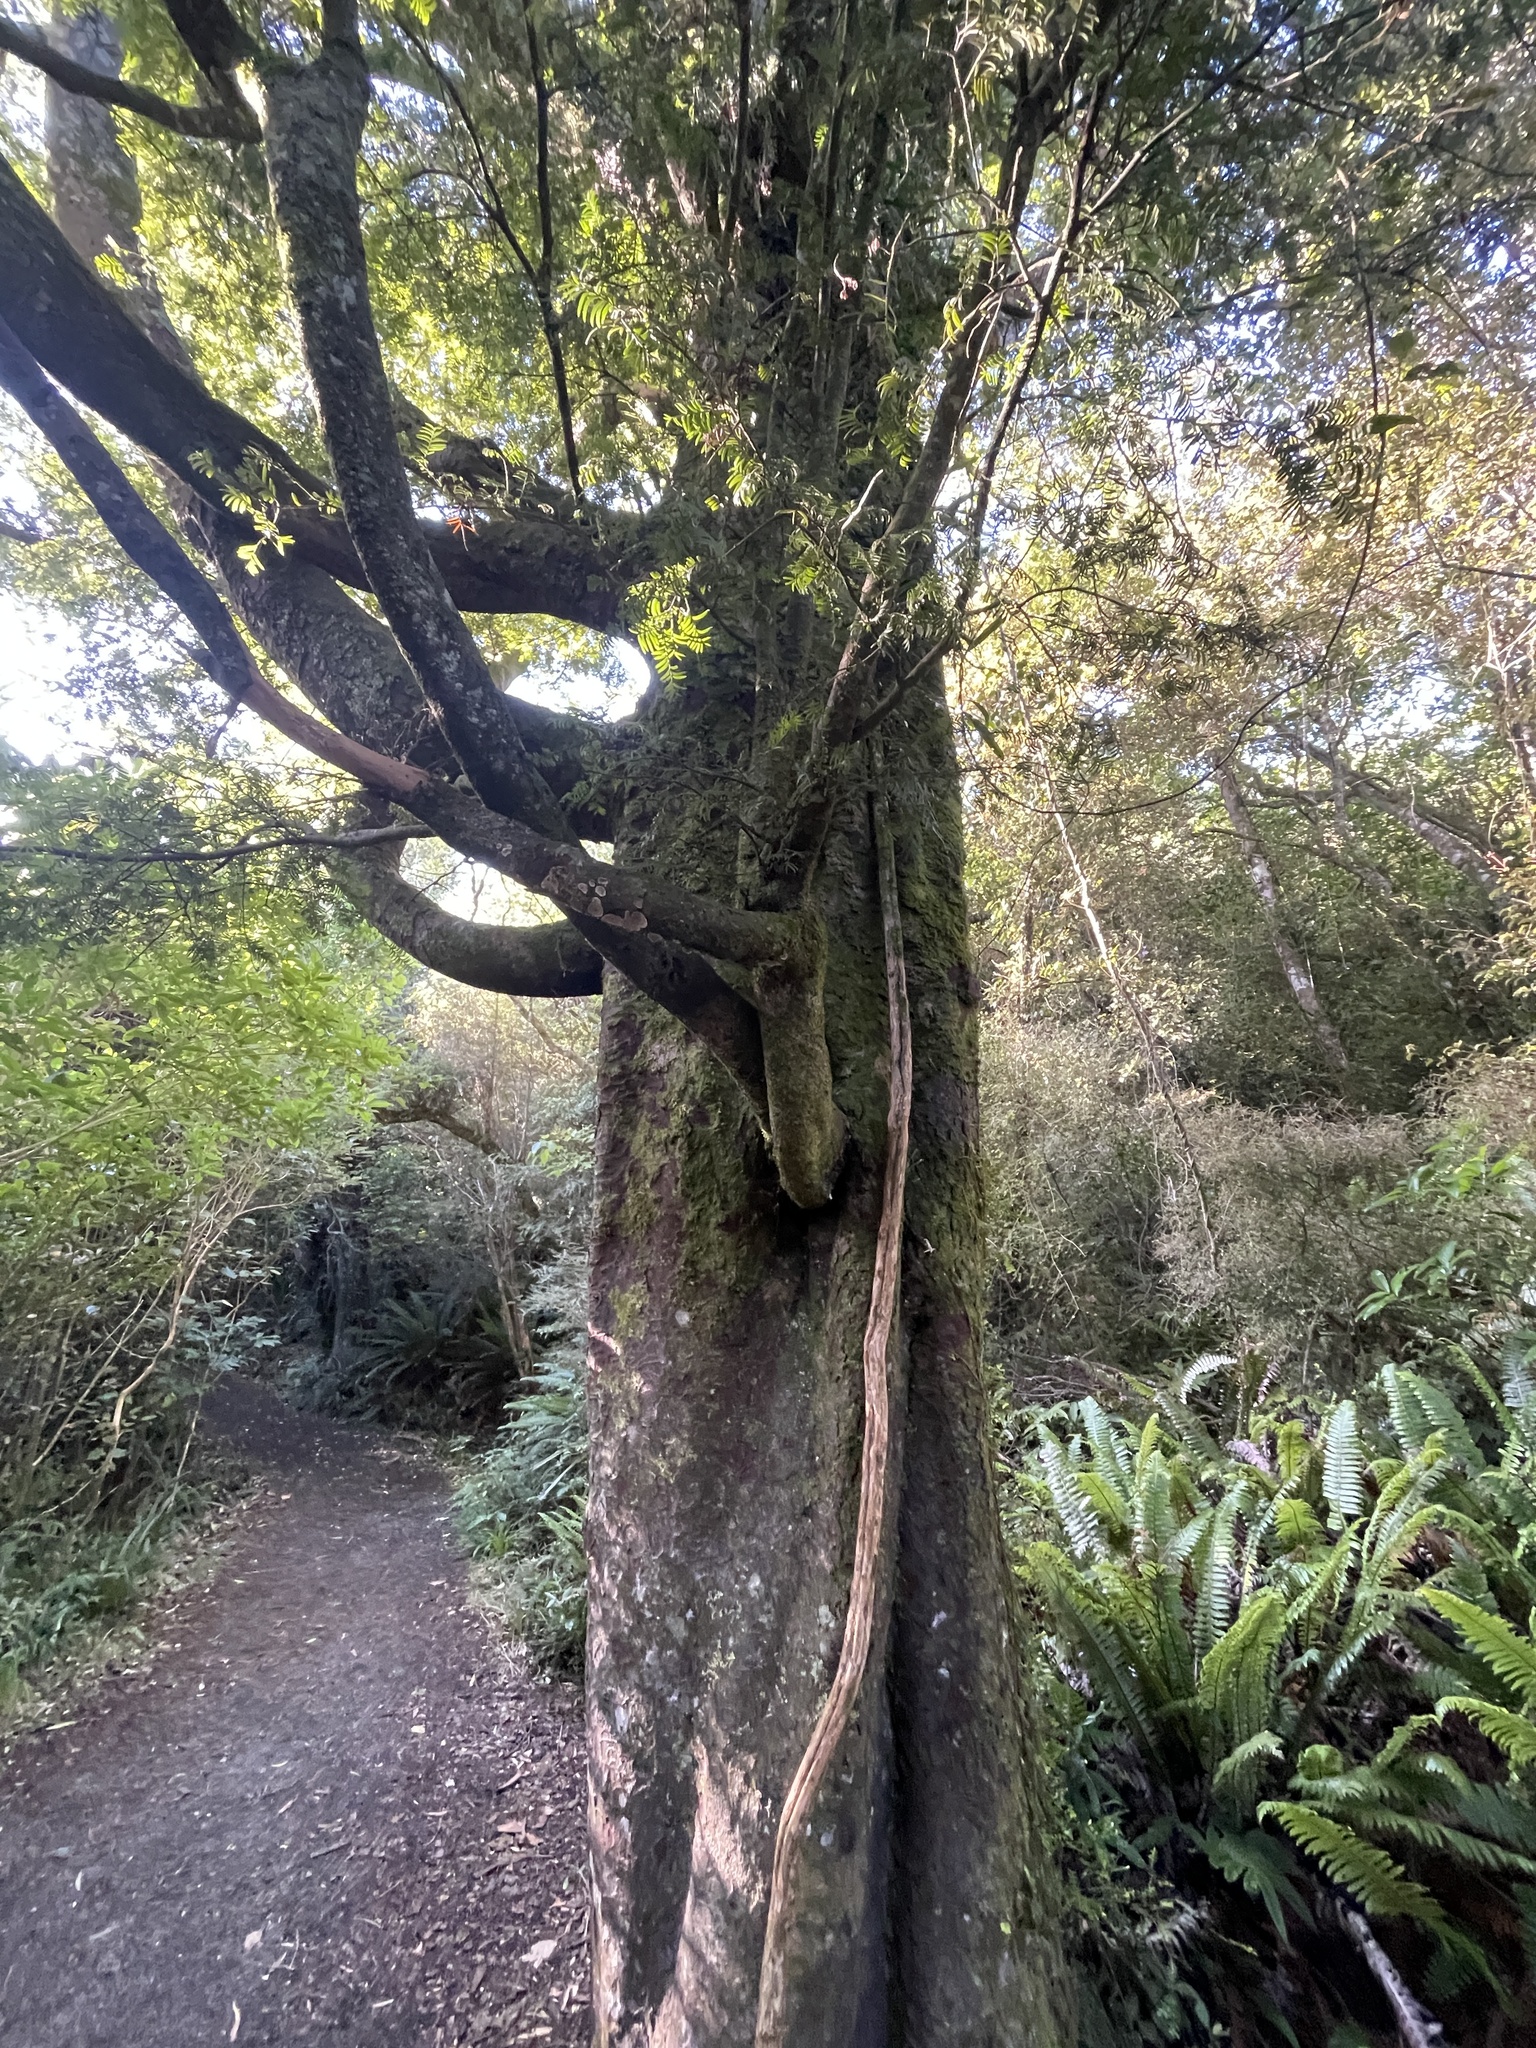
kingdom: Plantae
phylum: Tracheophyta
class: Pinopsida
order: Pinales
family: Podocarpaceae
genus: Prumnopitys
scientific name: Prumnopitys ferruginea
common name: Brown pine
